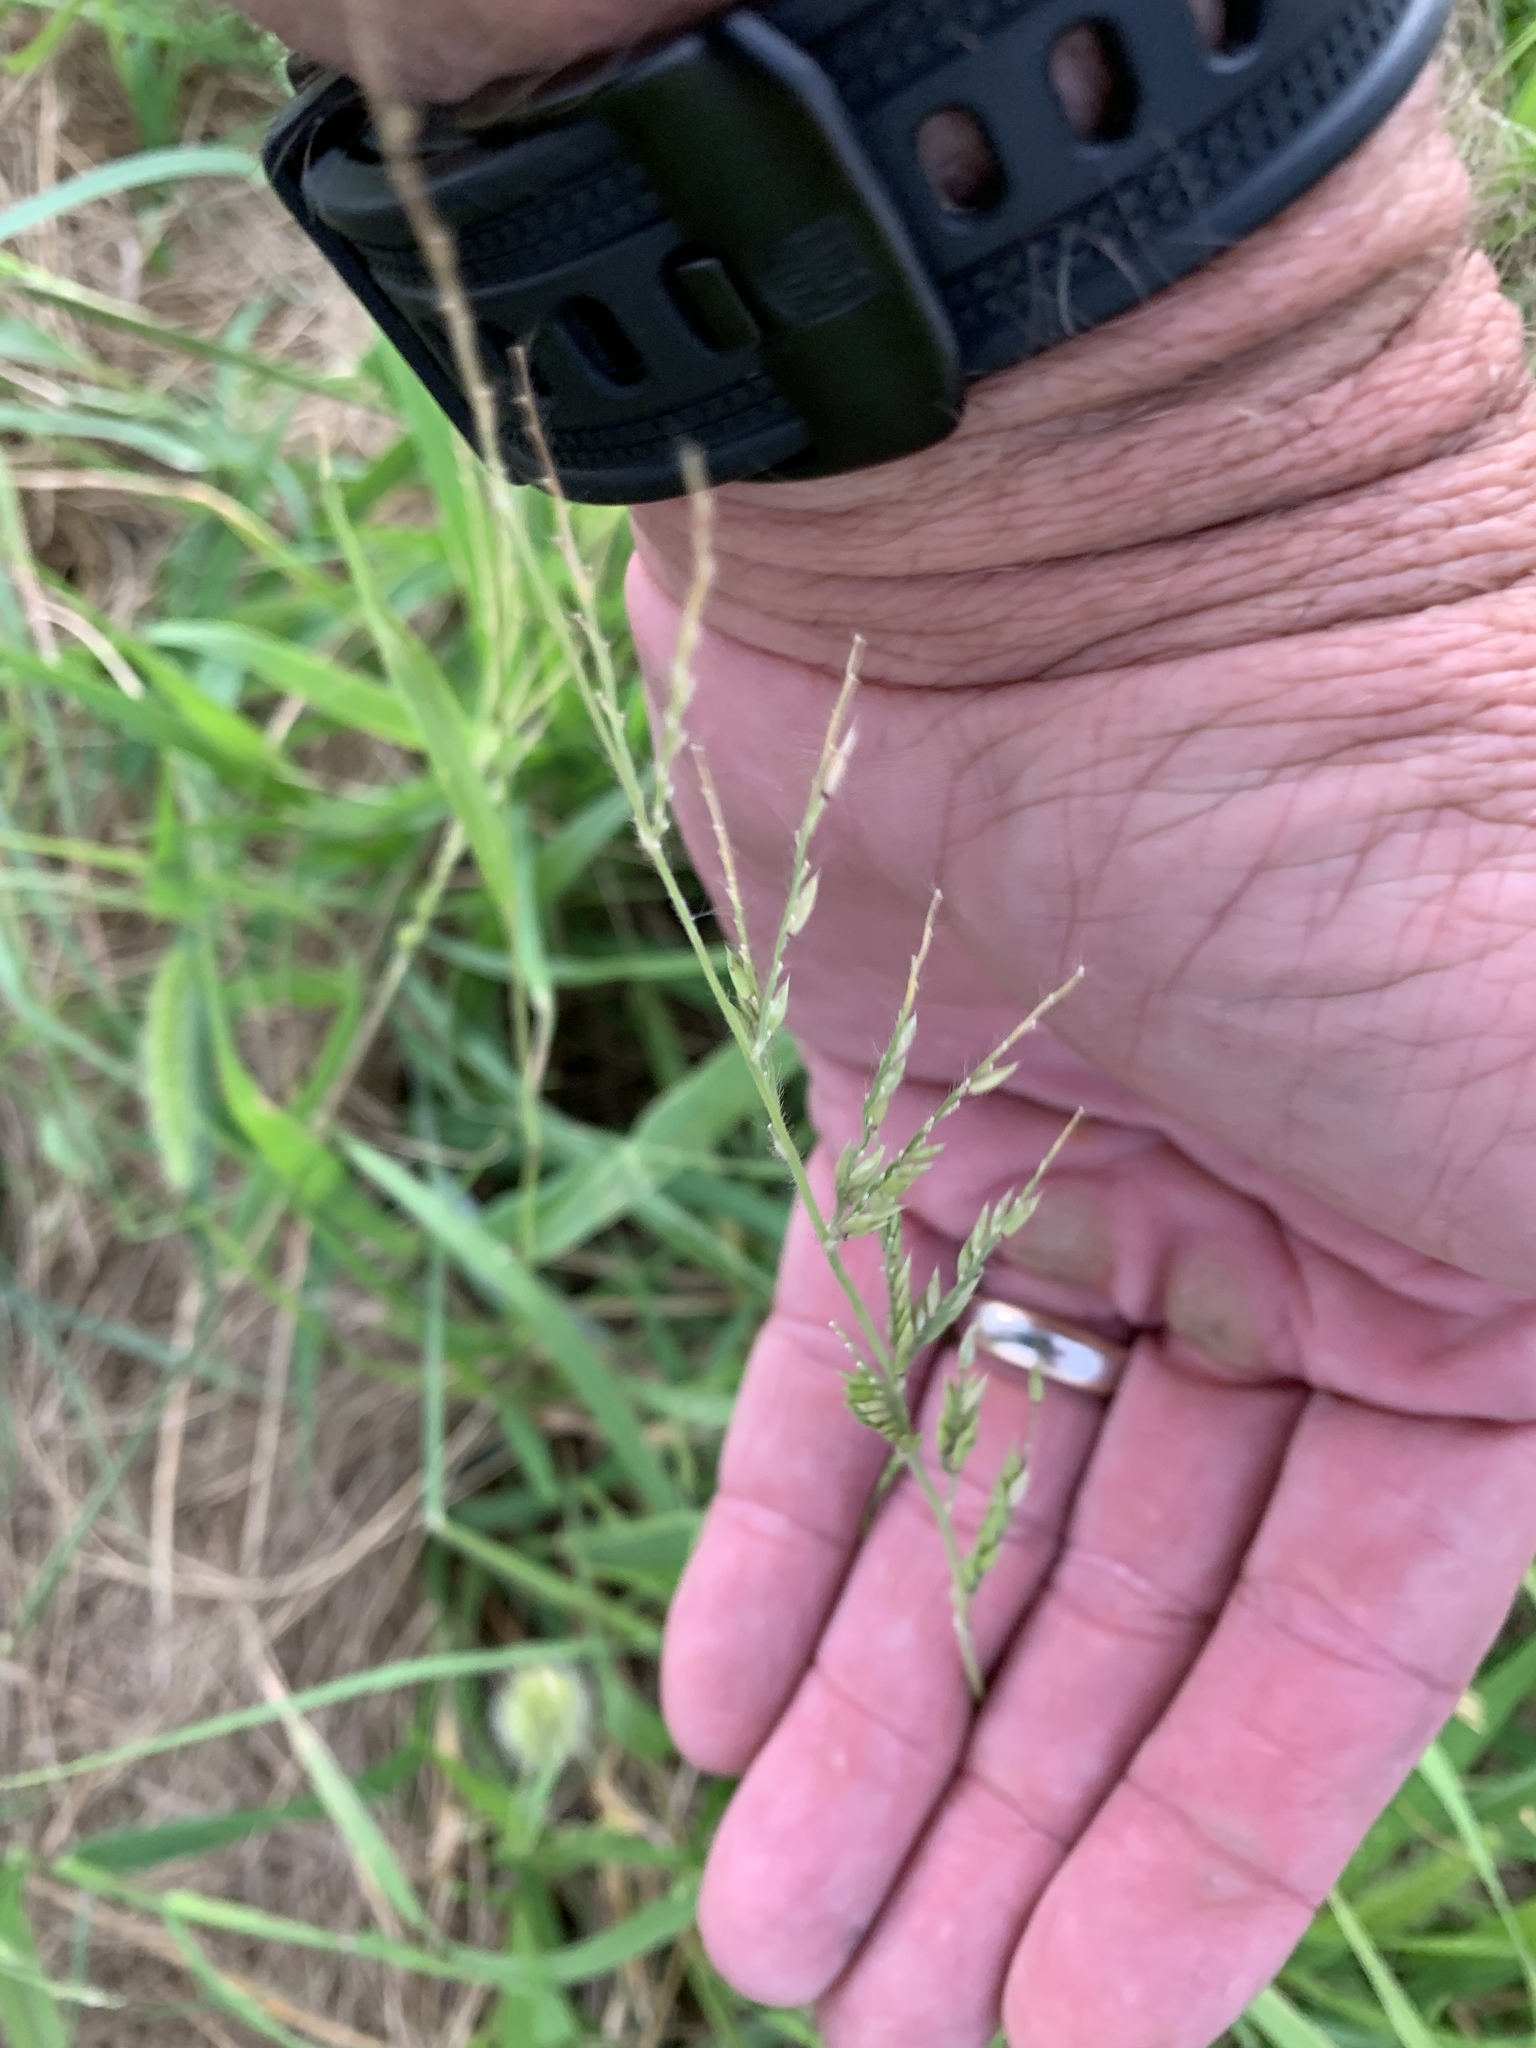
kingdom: Plantae
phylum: Tracheophyta
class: Liliopsida
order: Poales
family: Poaceae
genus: Eriochloa
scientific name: Eriochloa acuminata
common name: Southwestern cup grass
